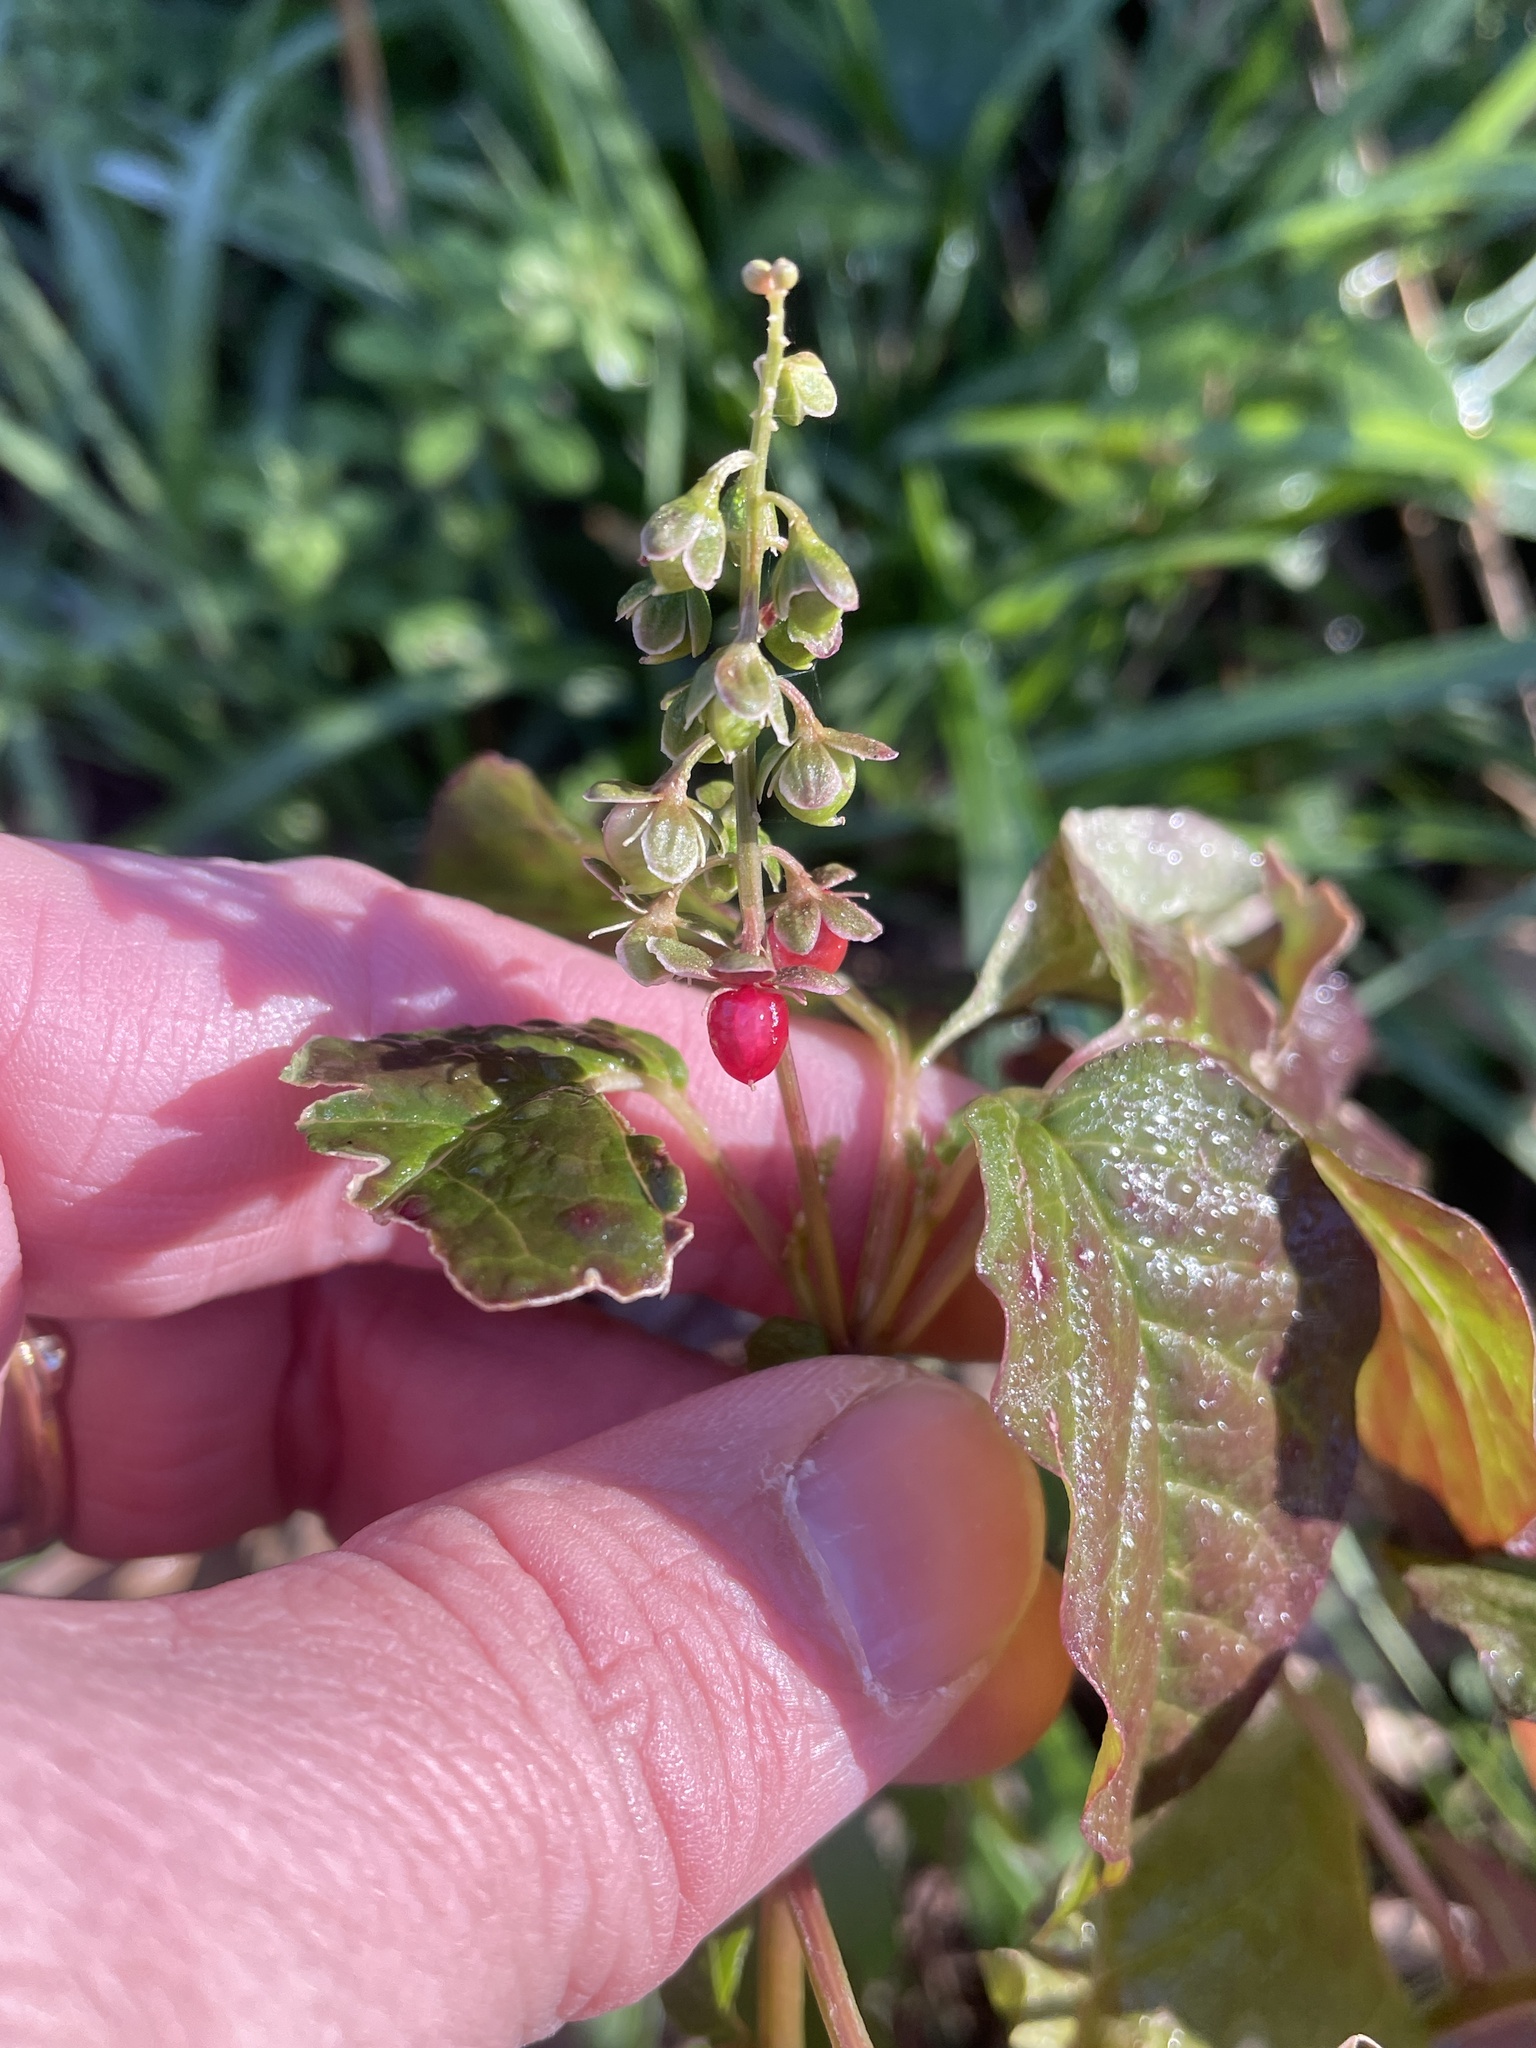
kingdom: Plantae
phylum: Tracheophyta
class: Magnoliopsida
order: Caryophyllales
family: Phytolaccaceae
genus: Rivina
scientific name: Rivina humilis
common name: Rougeplant
